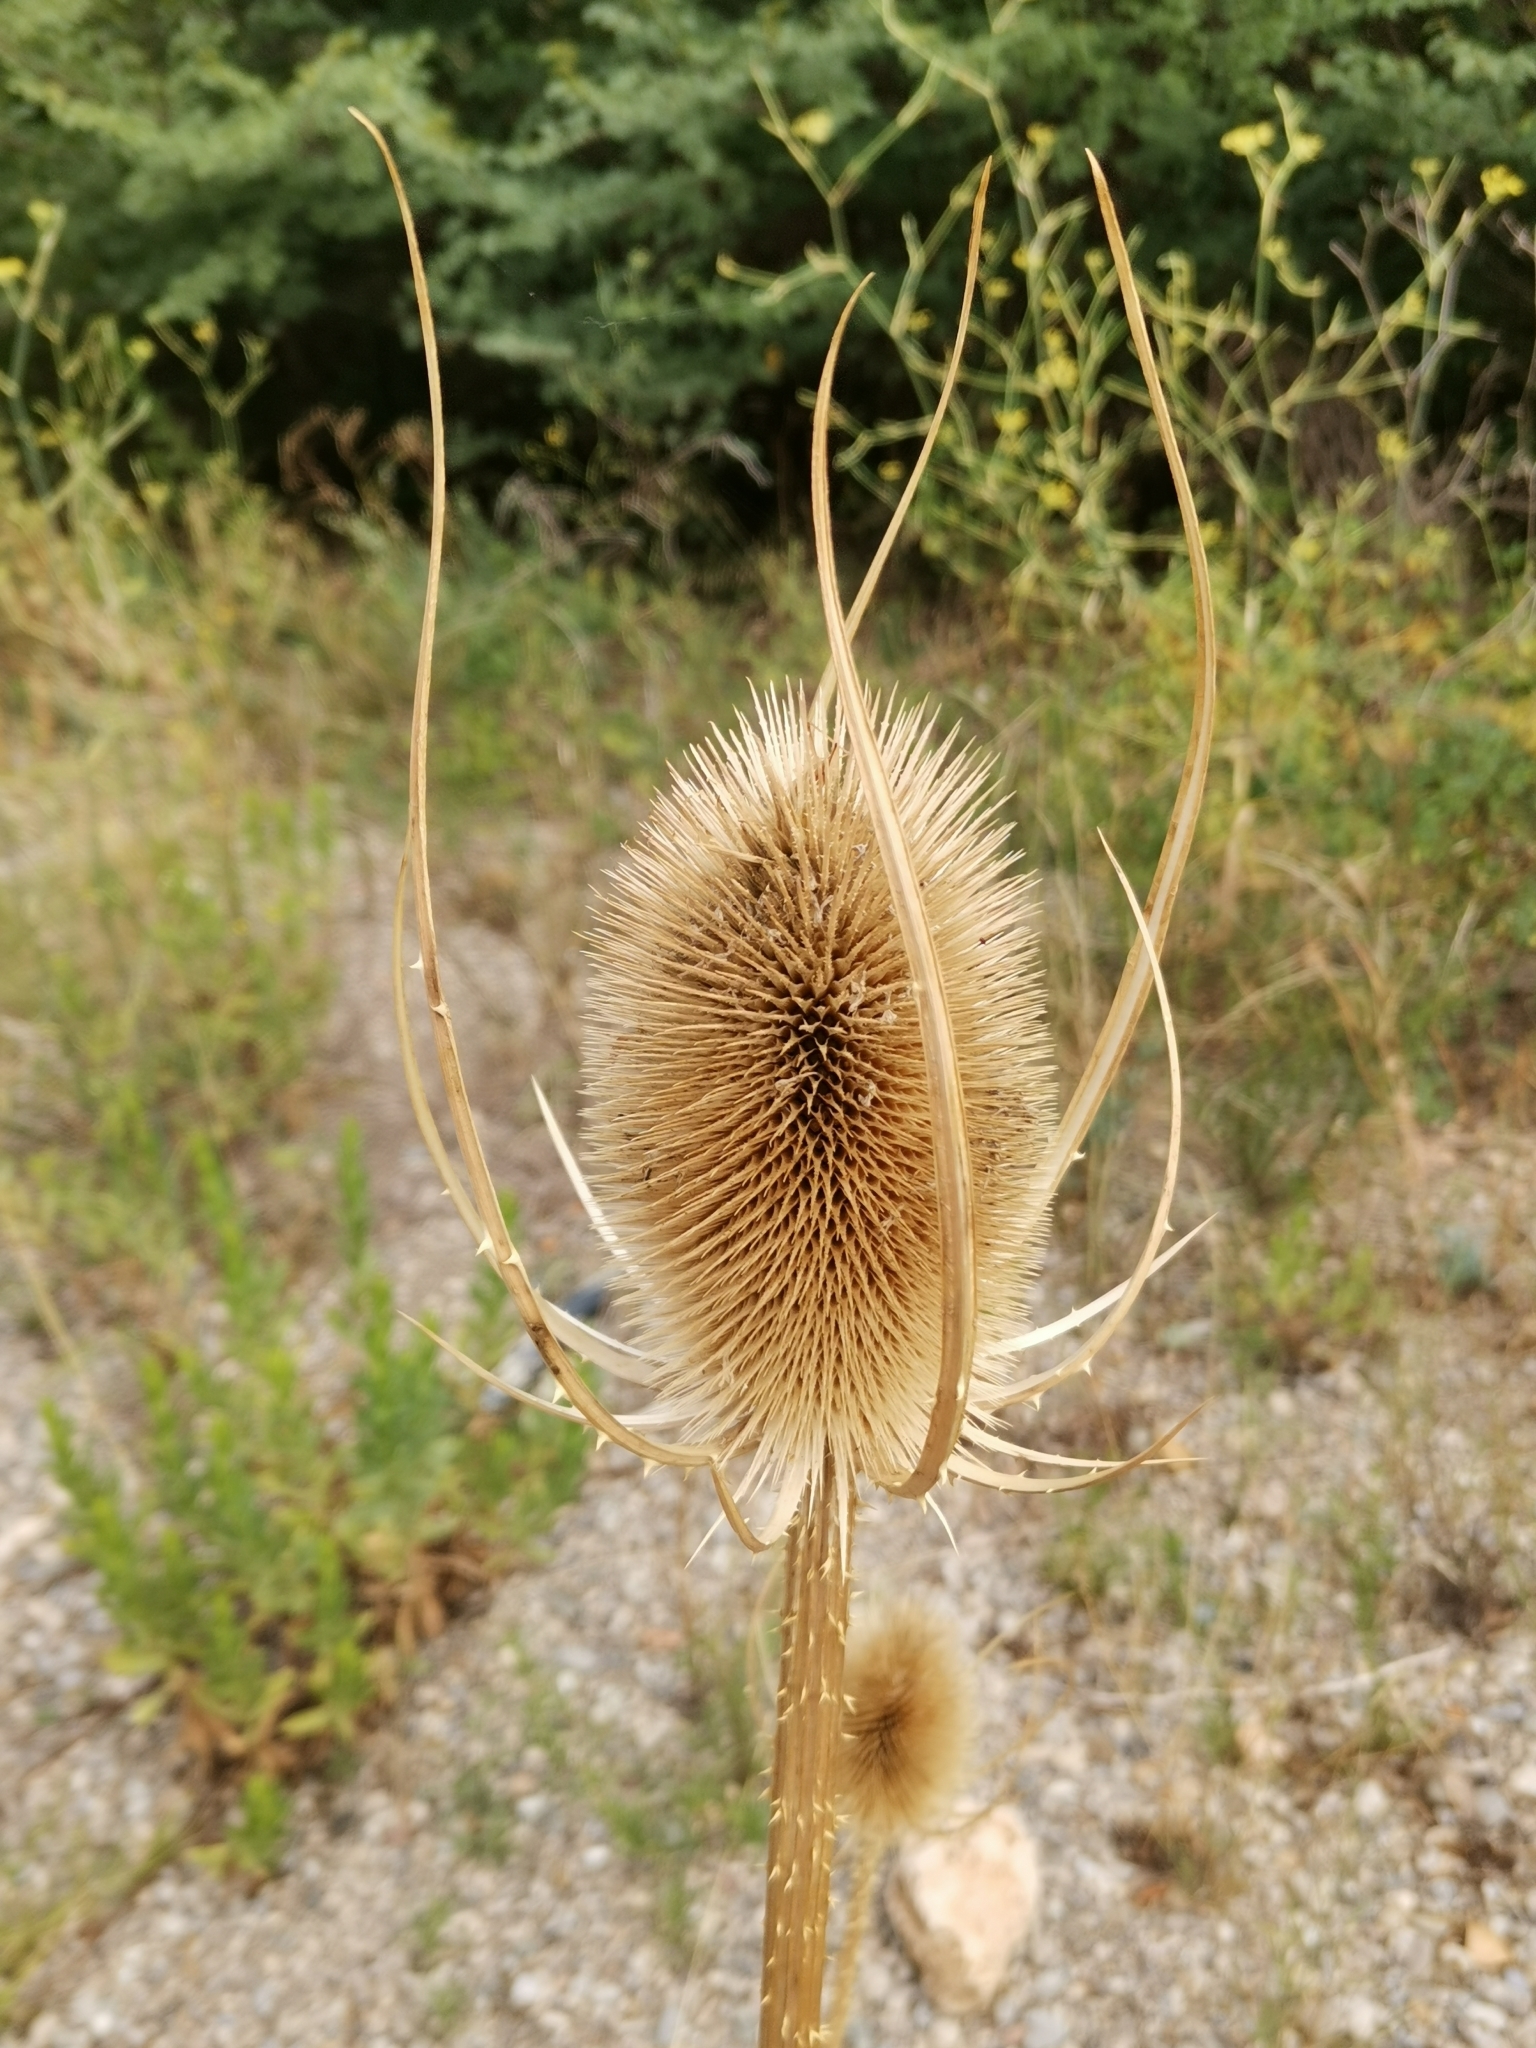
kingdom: Plantae
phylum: Tracheophyta
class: Magnoliopsida
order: Dipsacales
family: Caprifoliaceae
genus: Dipsacus
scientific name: Dipsacus fullonum
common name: Teasel
